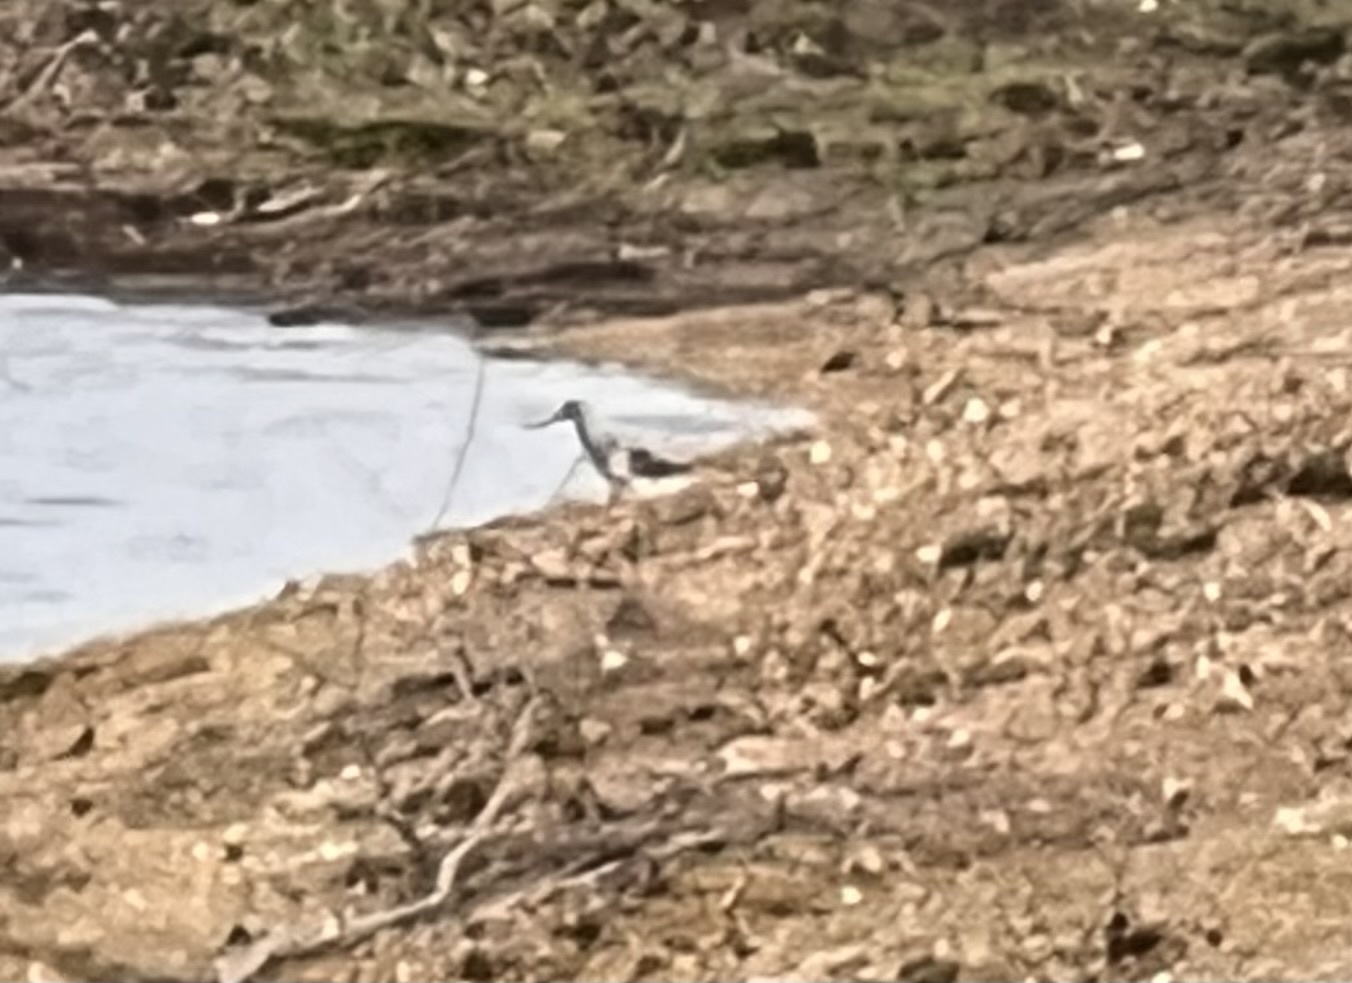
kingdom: Animalia
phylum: Chordata
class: Aves
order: Charadriiformes
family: Scolopacidae
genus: Tringa
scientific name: Tringa melanoleuca
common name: Greater yellowlegs
